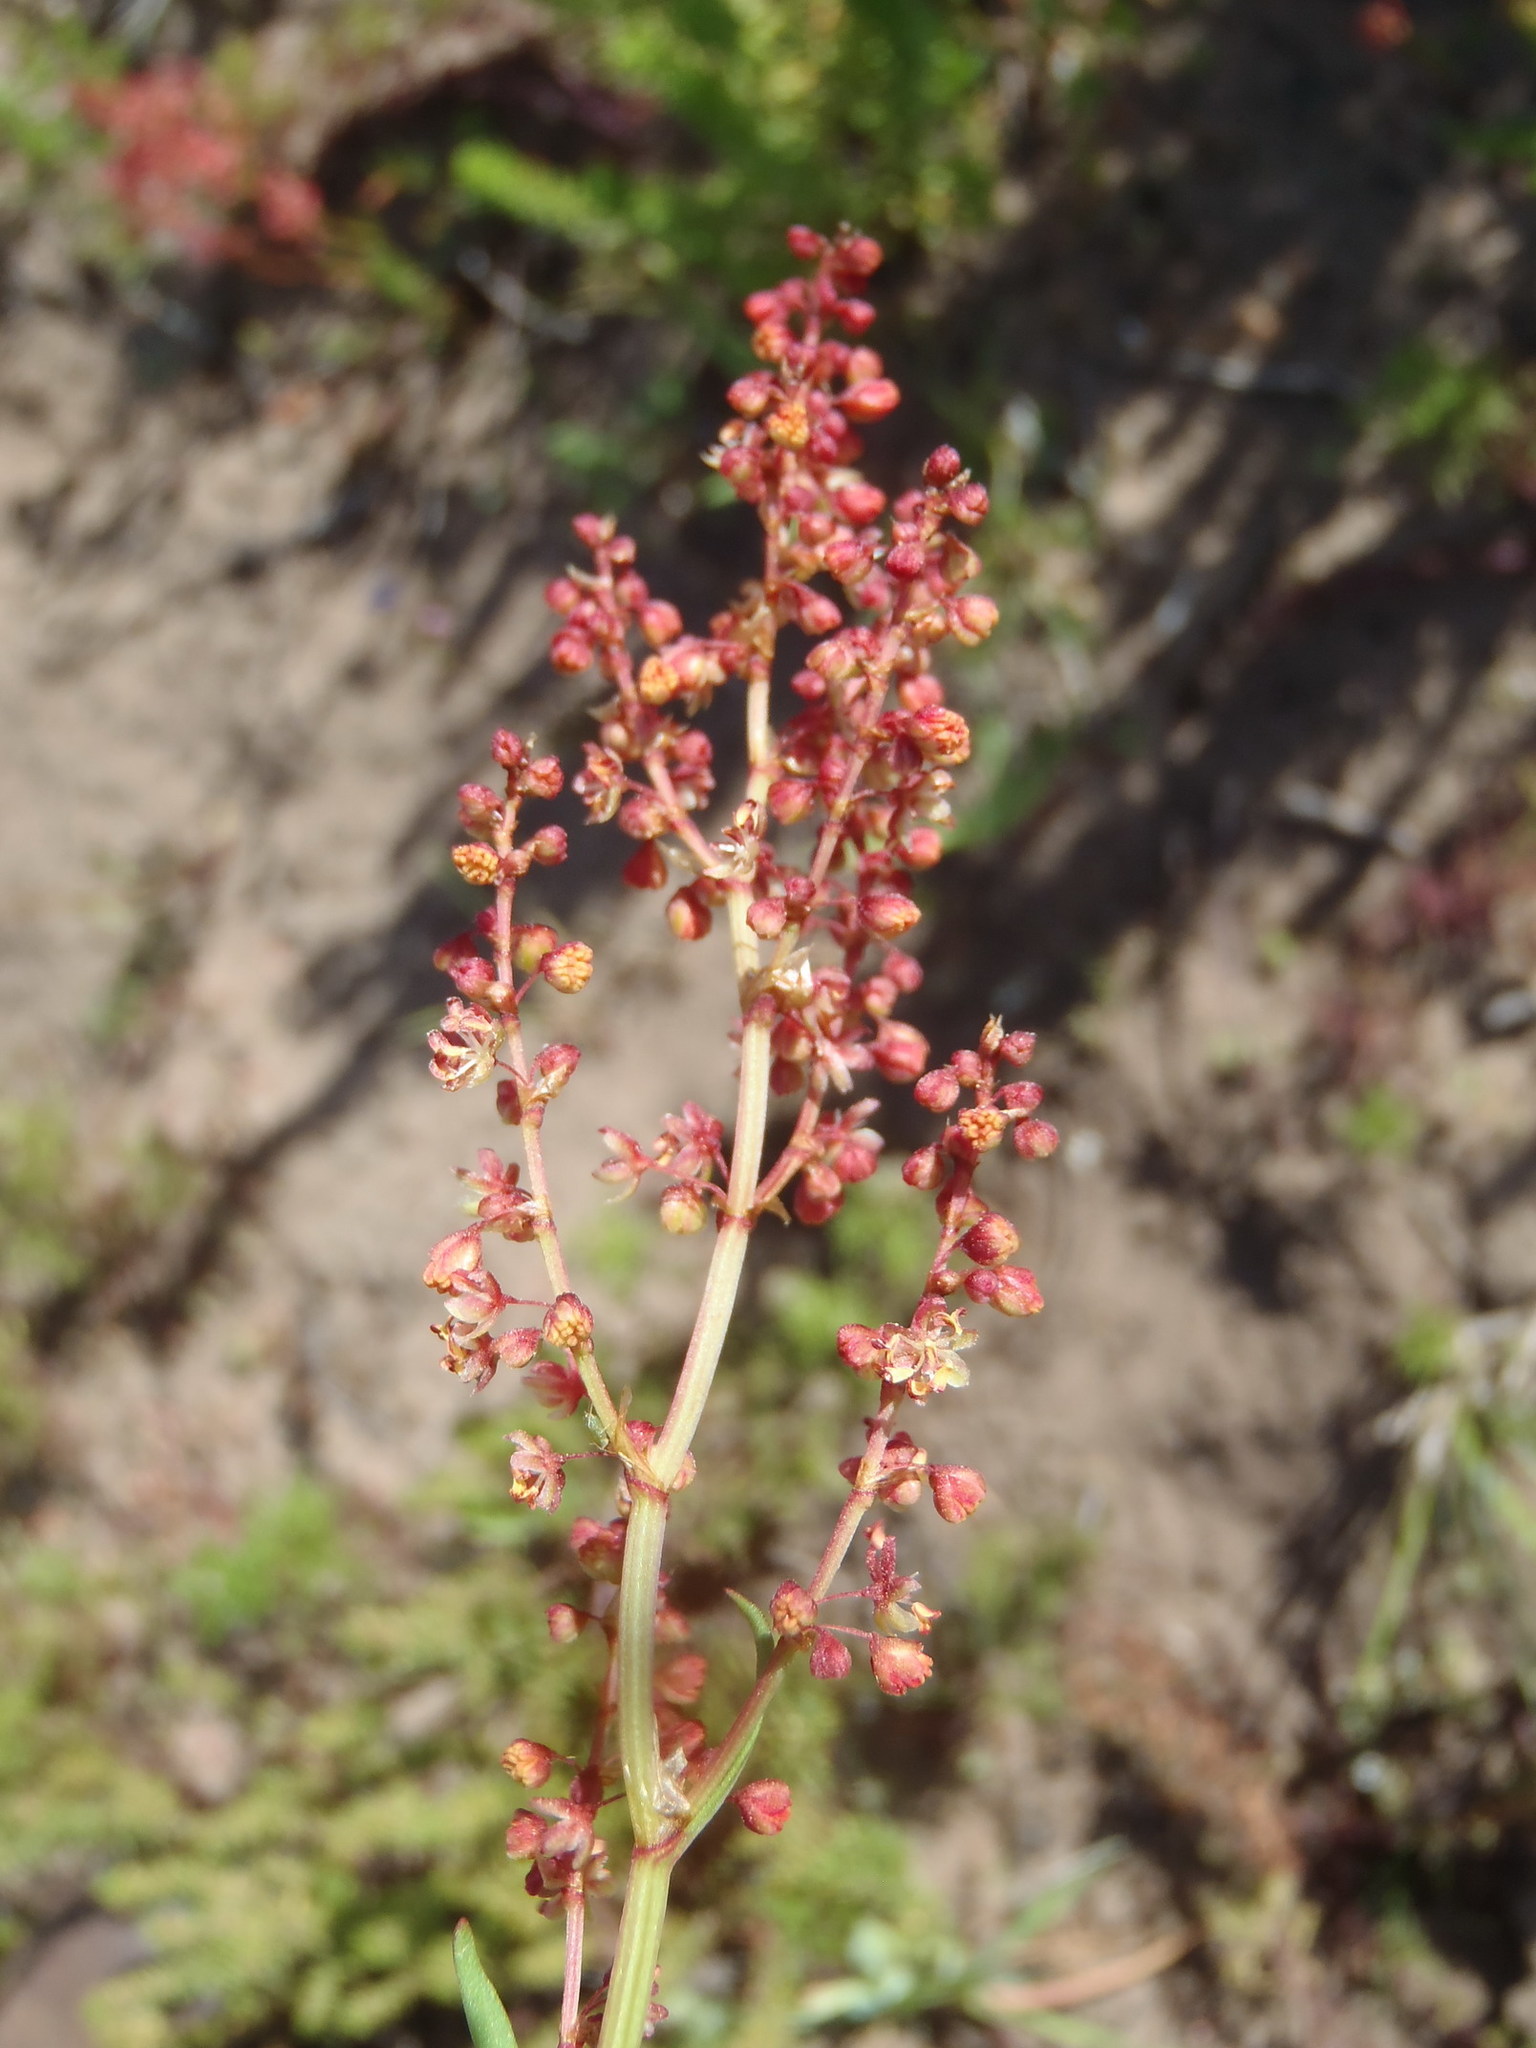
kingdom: Plantae
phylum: Tracheophyta
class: Magnoliopsida
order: Caryophyllales
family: Polygonaceae
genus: Rumex
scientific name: Rumex acetosella
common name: Common sheep sorrel
